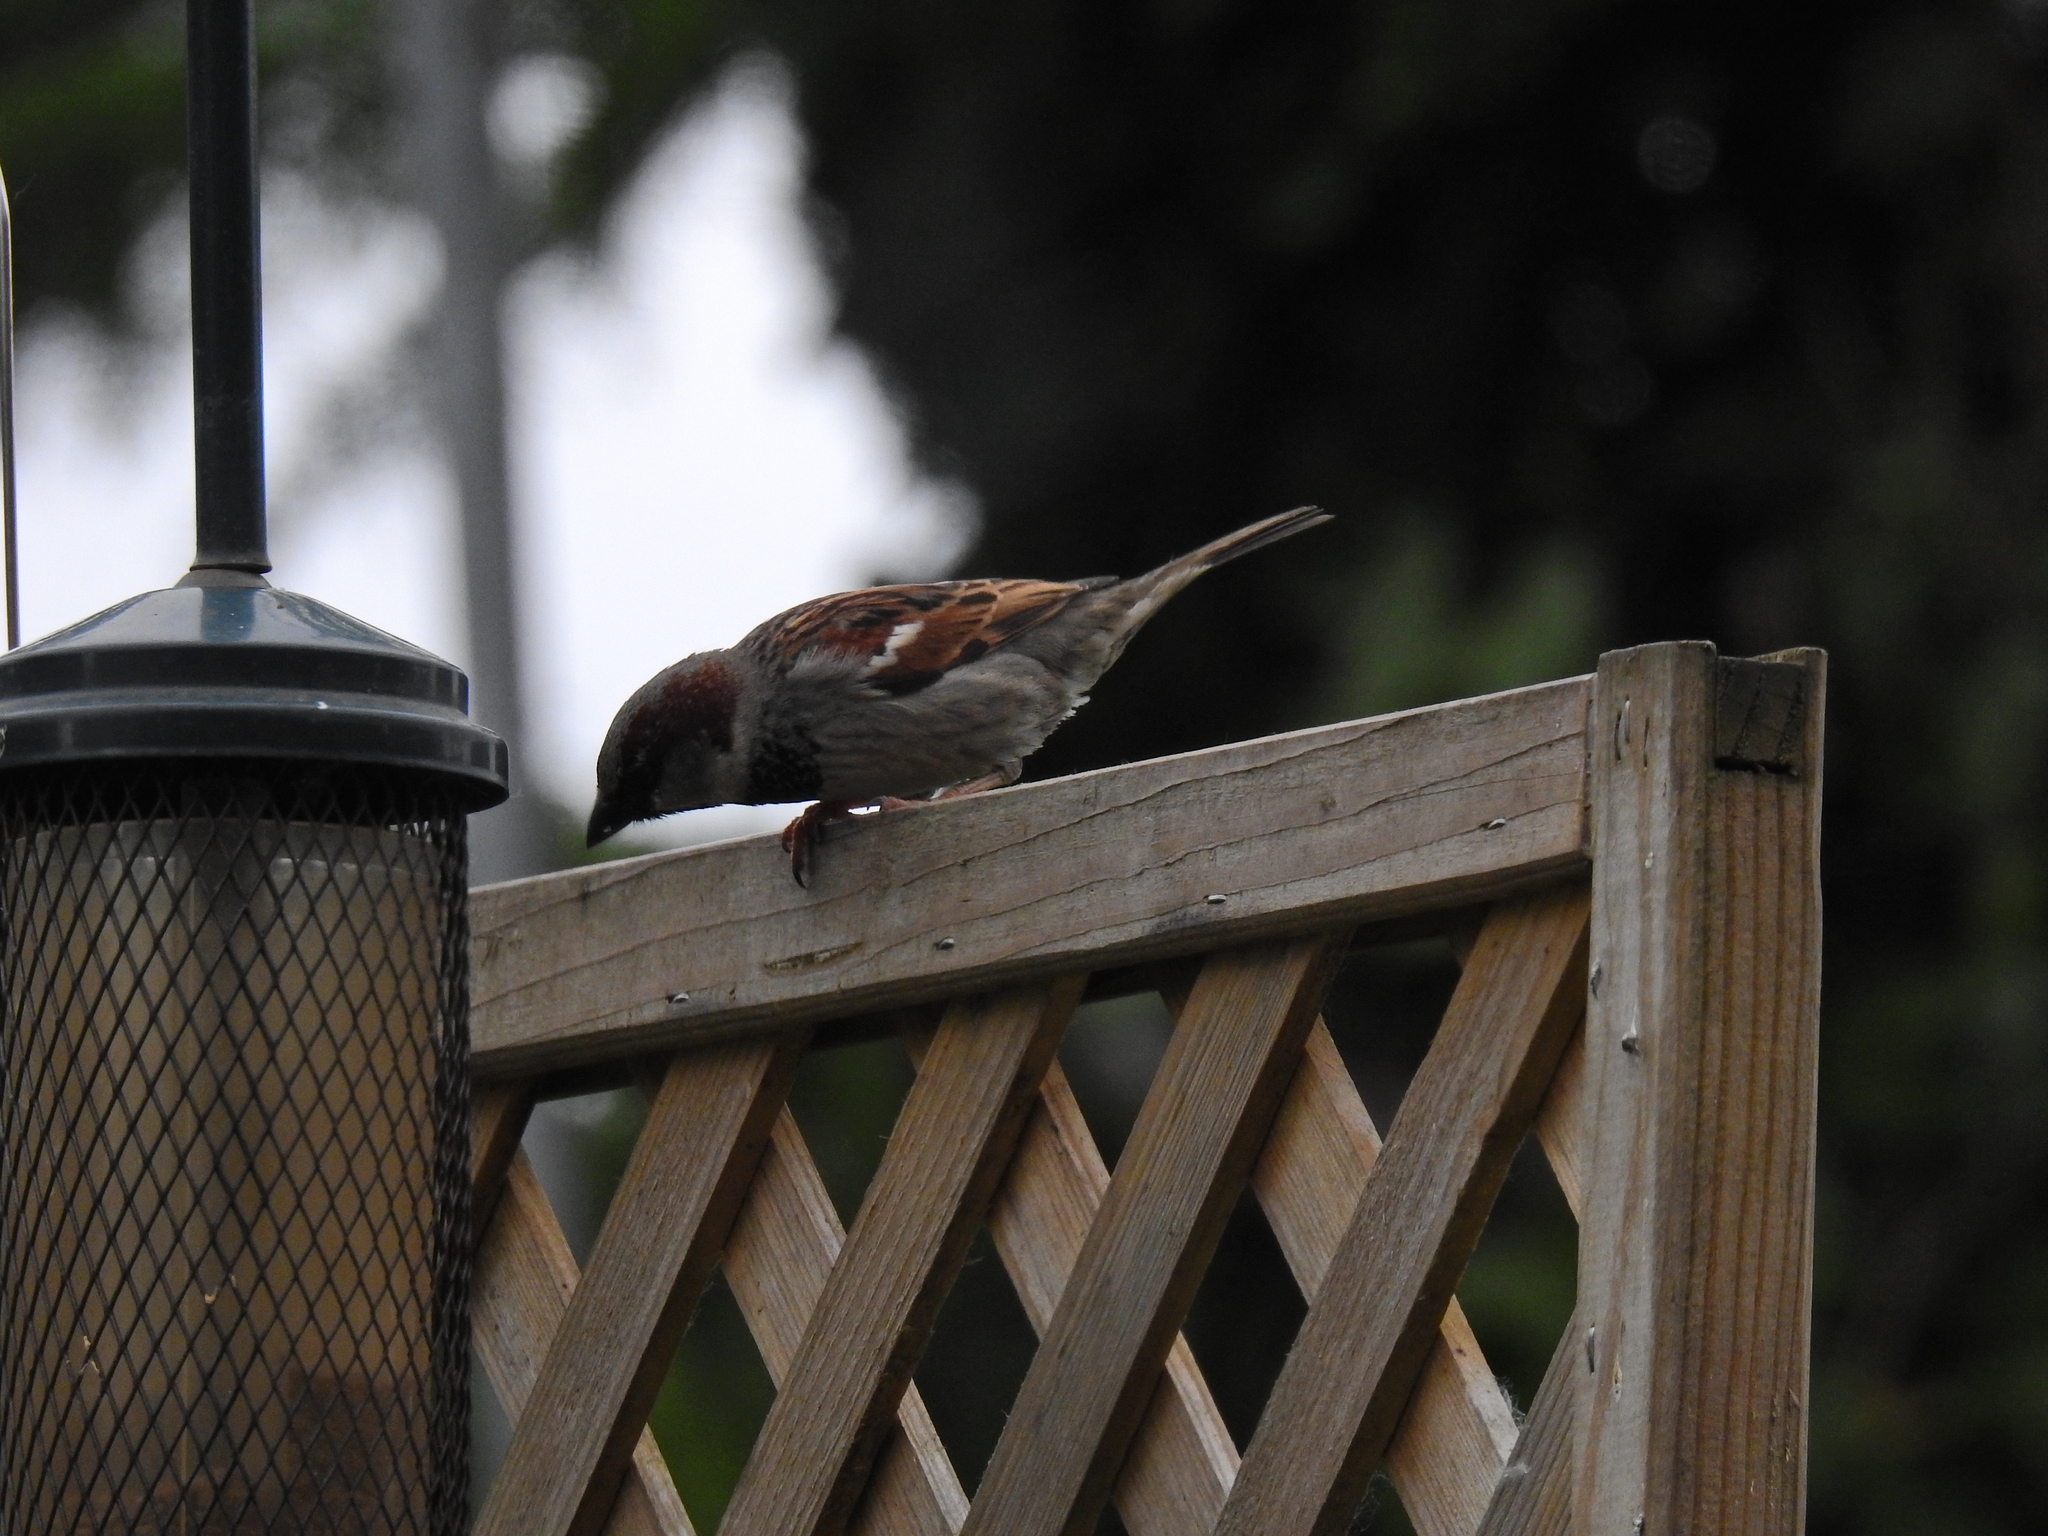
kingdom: Animalia
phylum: Chordata
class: Aves
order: Passeriformes
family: Passeridae
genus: Passer
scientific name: Passer domesticus
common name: House sparrow
